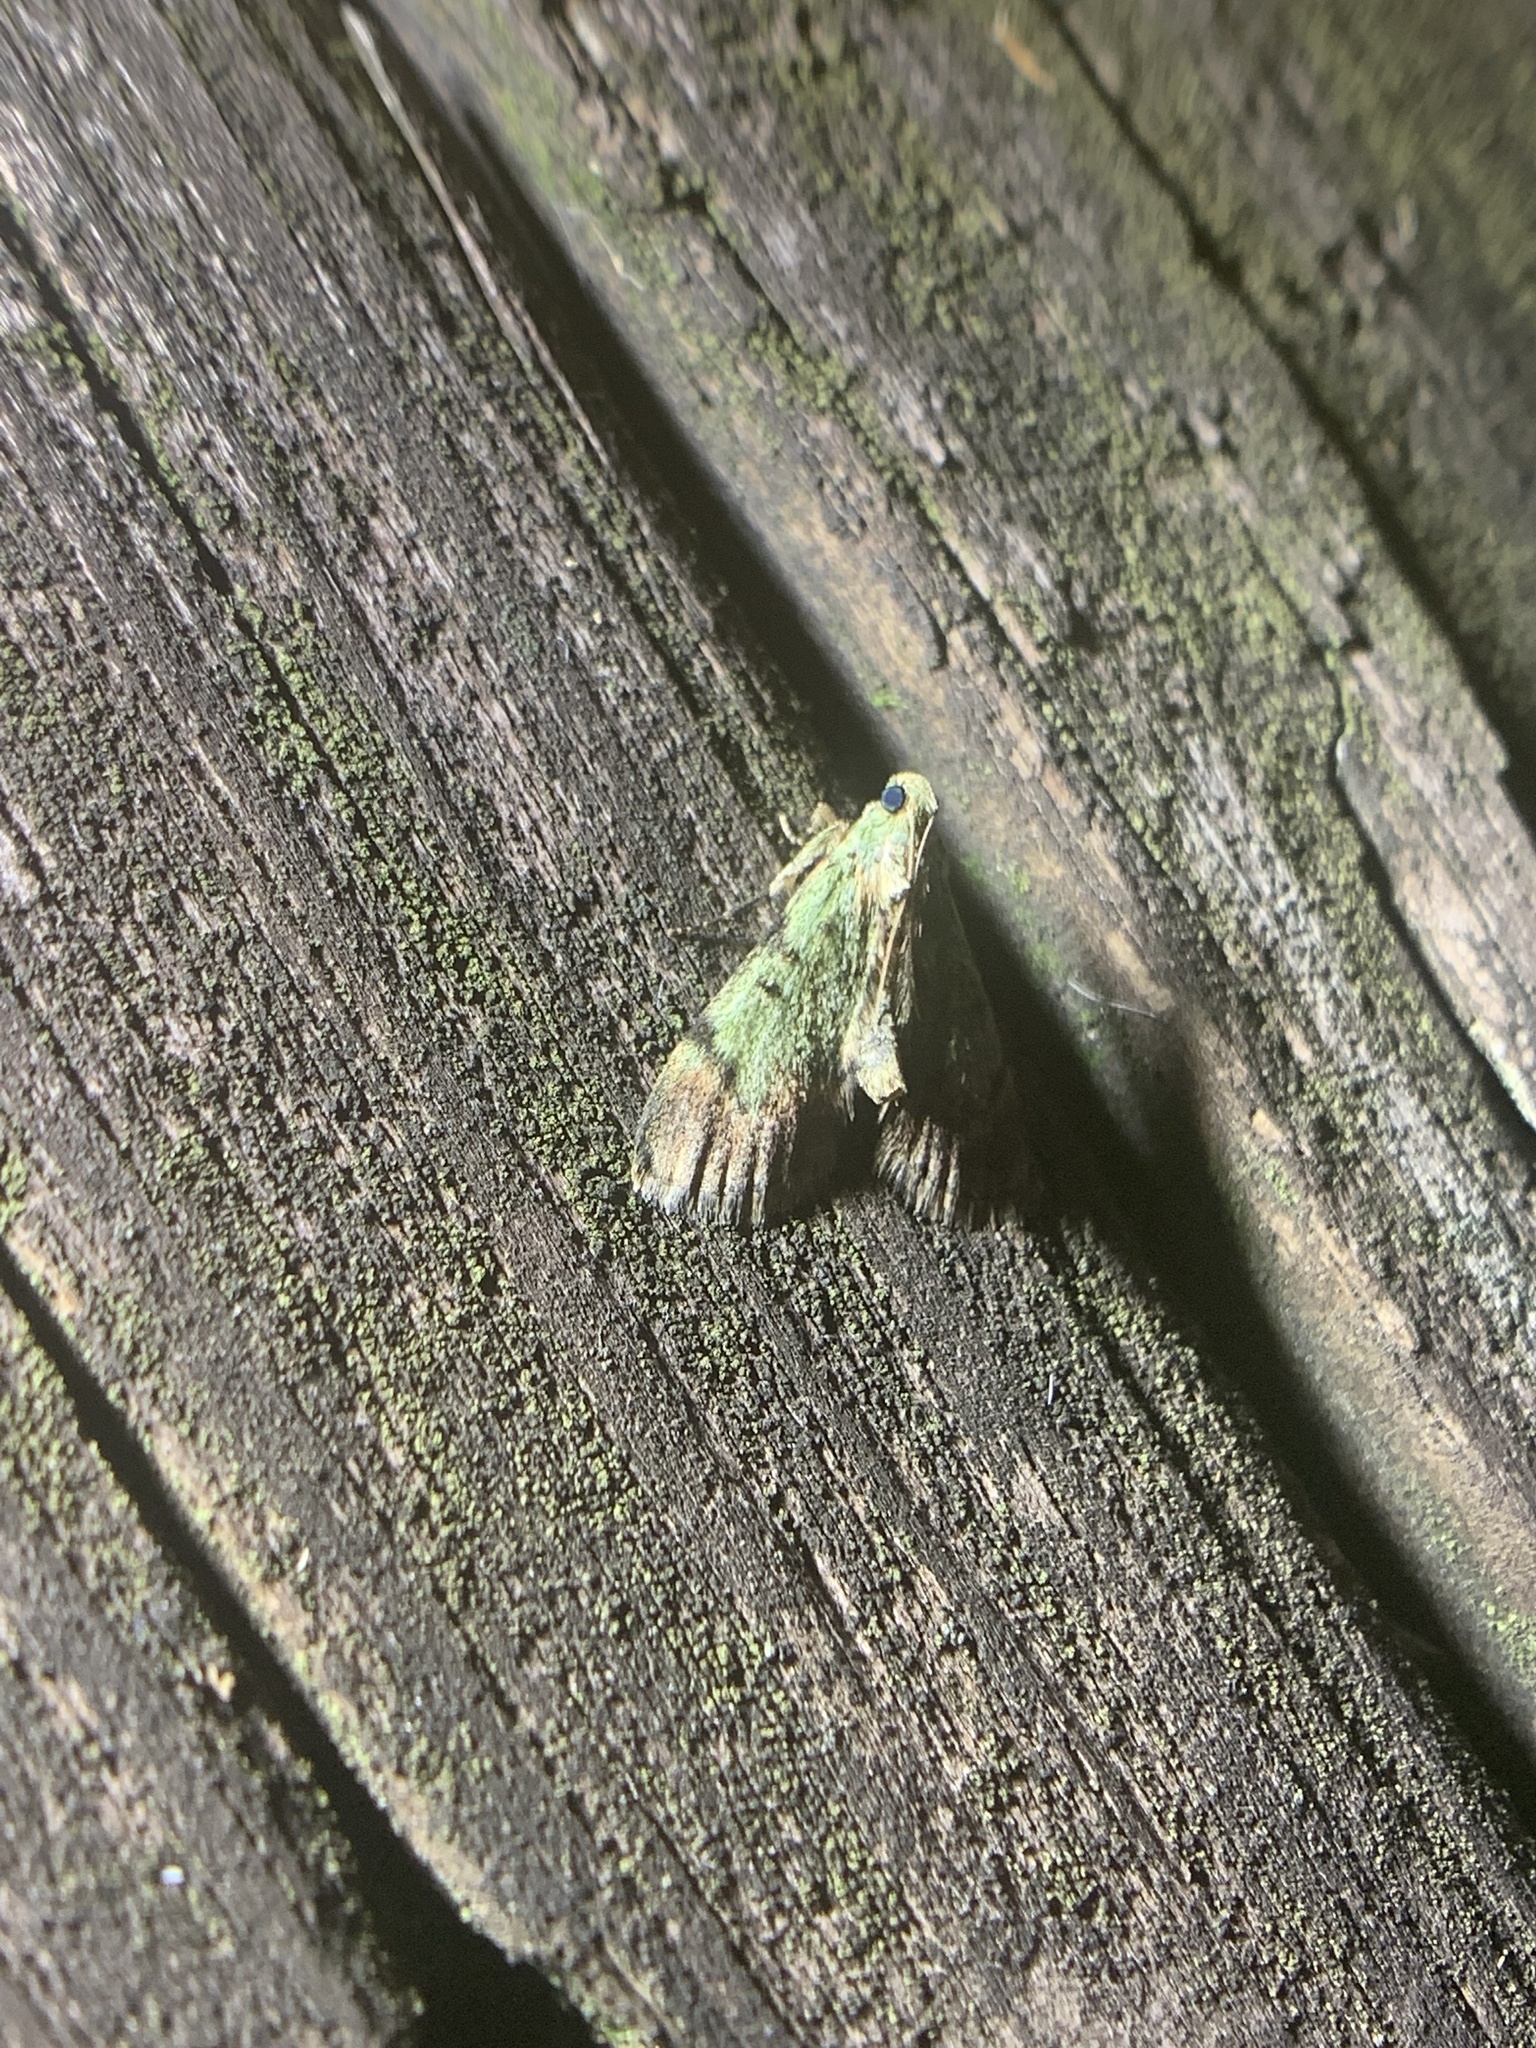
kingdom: Animalia
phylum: Arthropoda
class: Insecta
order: Lepidoptera
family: Pyralidae
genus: Epipaschia
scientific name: Epipaschia superatalis
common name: Dimorphic macalla moth
